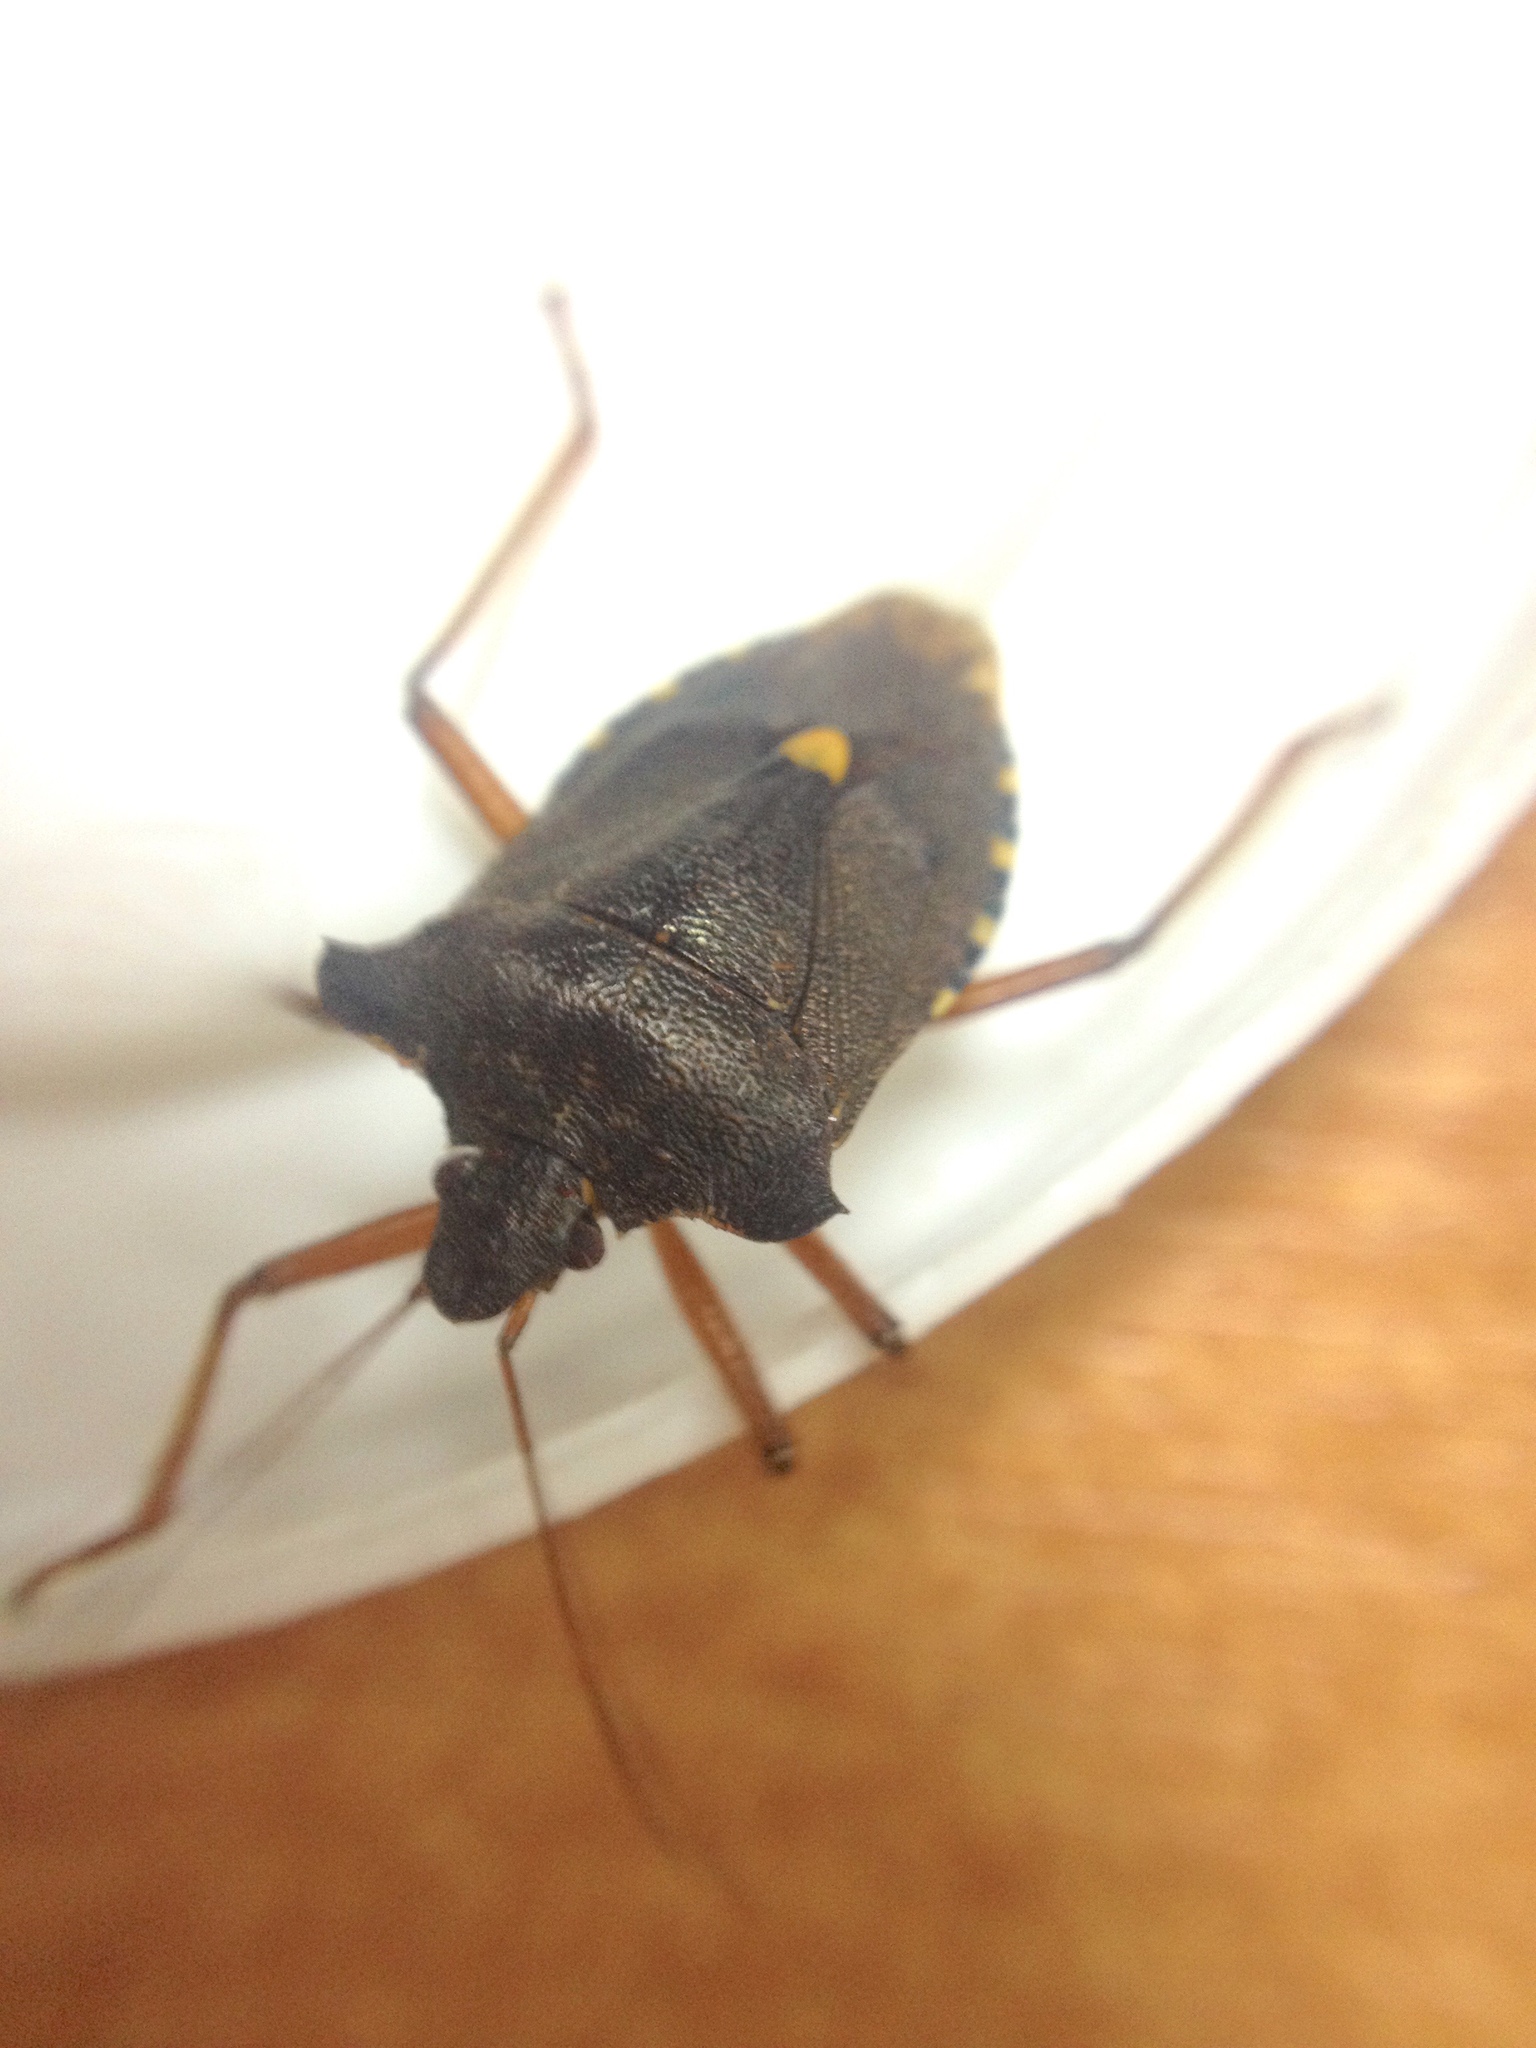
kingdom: Animalia
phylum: Arthropoda
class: Insecta
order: Hemiptera
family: Pentatomidae
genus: Pentatoma
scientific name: Pentatoma rufipes
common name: Forest bug
